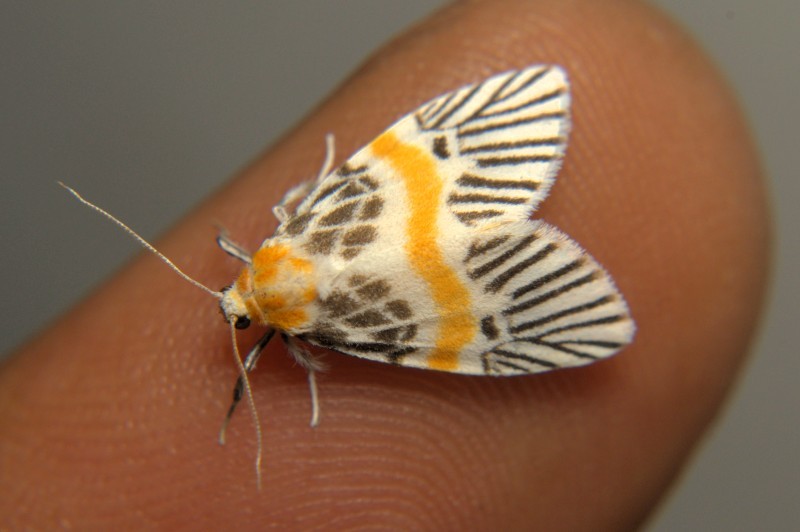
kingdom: Animalia
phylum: Arthropoda
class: Insecta
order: Lepidoptera
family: Erebidae
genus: Indiania
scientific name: Indiania eccentropis
